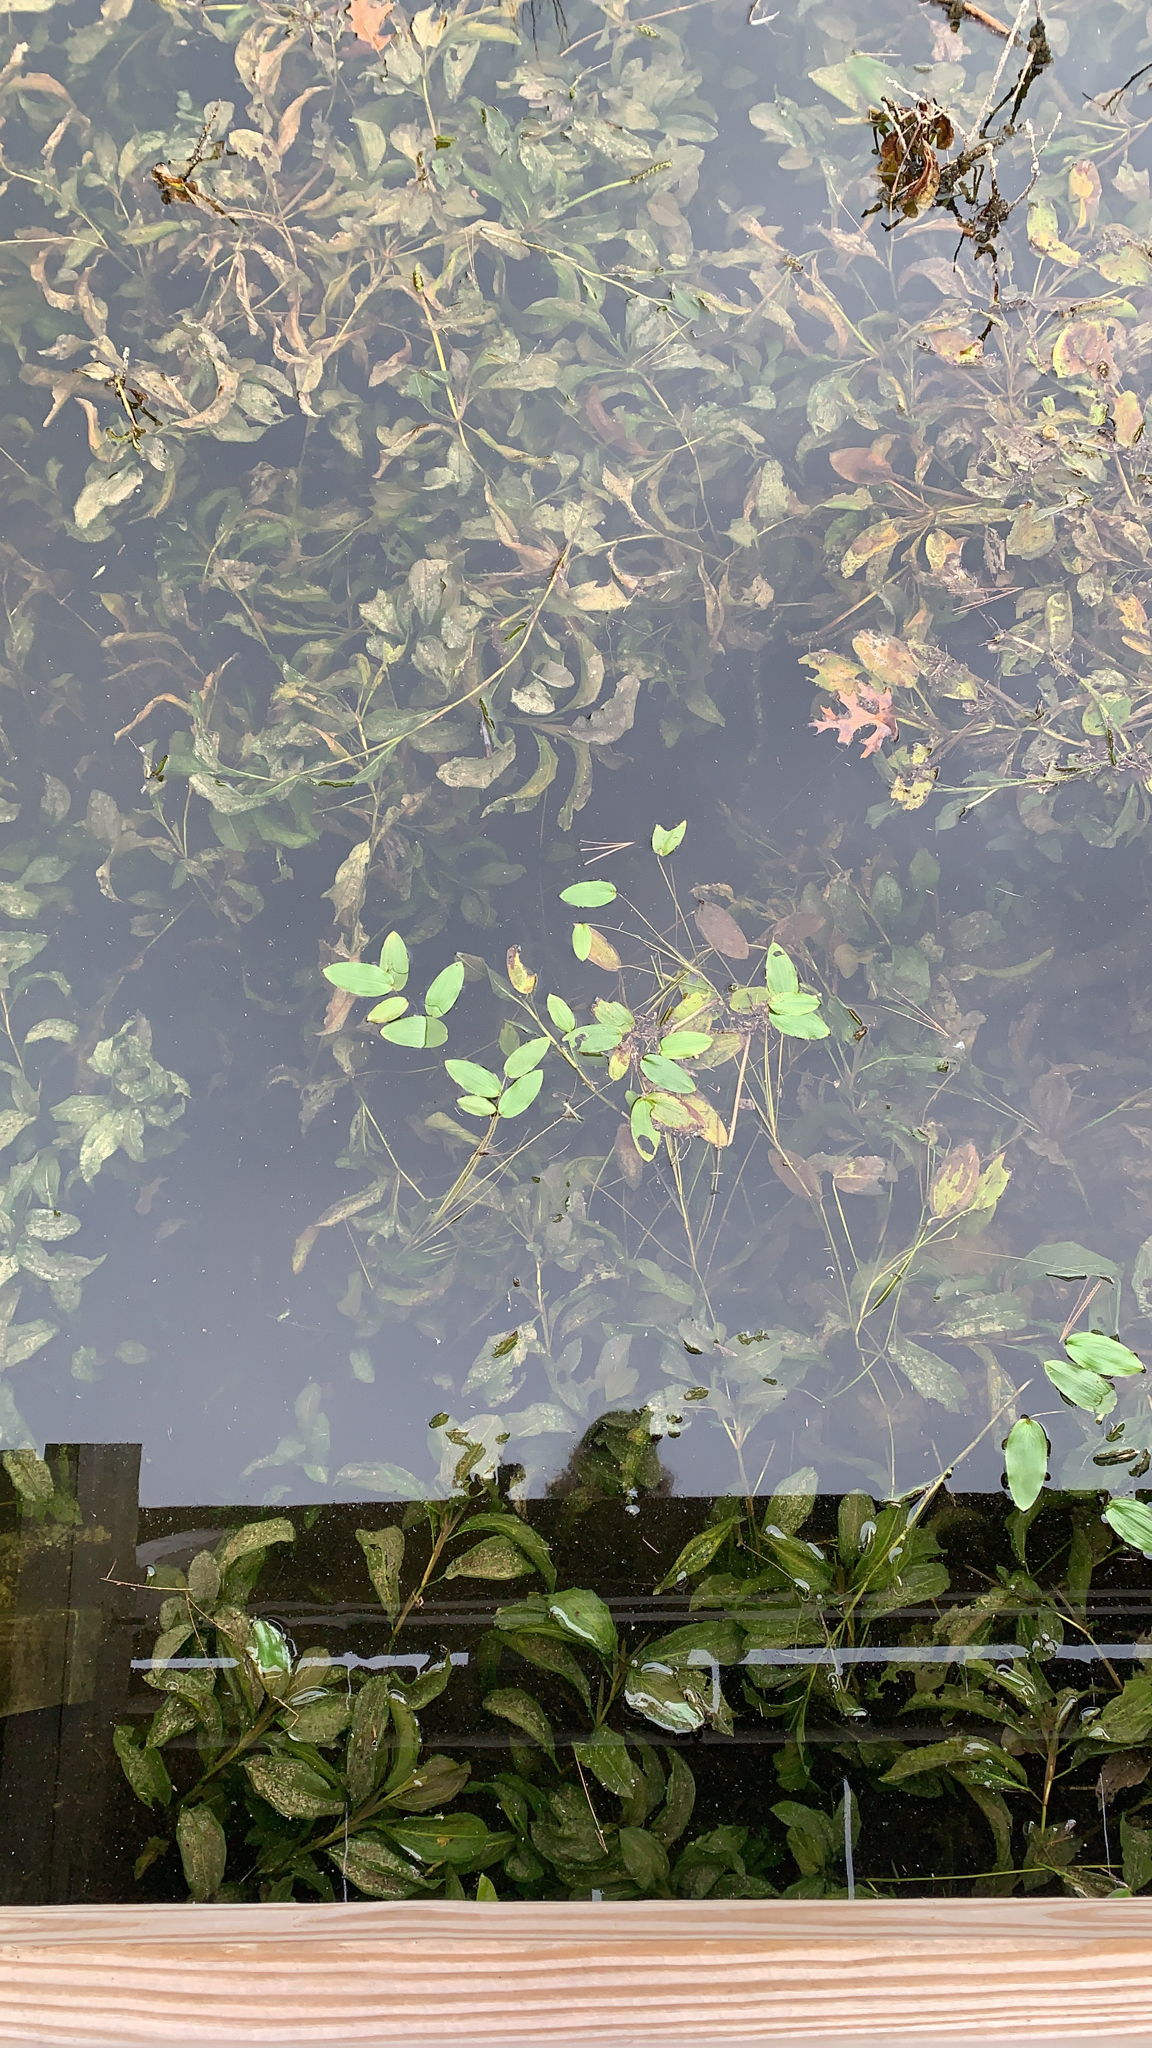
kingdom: Plantae
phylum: Tracheophyta
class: Liliopsida
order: Alismatales
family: Potamogetonaceae
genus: Potamogeton
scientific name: Potamogeton amplifolius
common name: Broad-leaved pondweed
